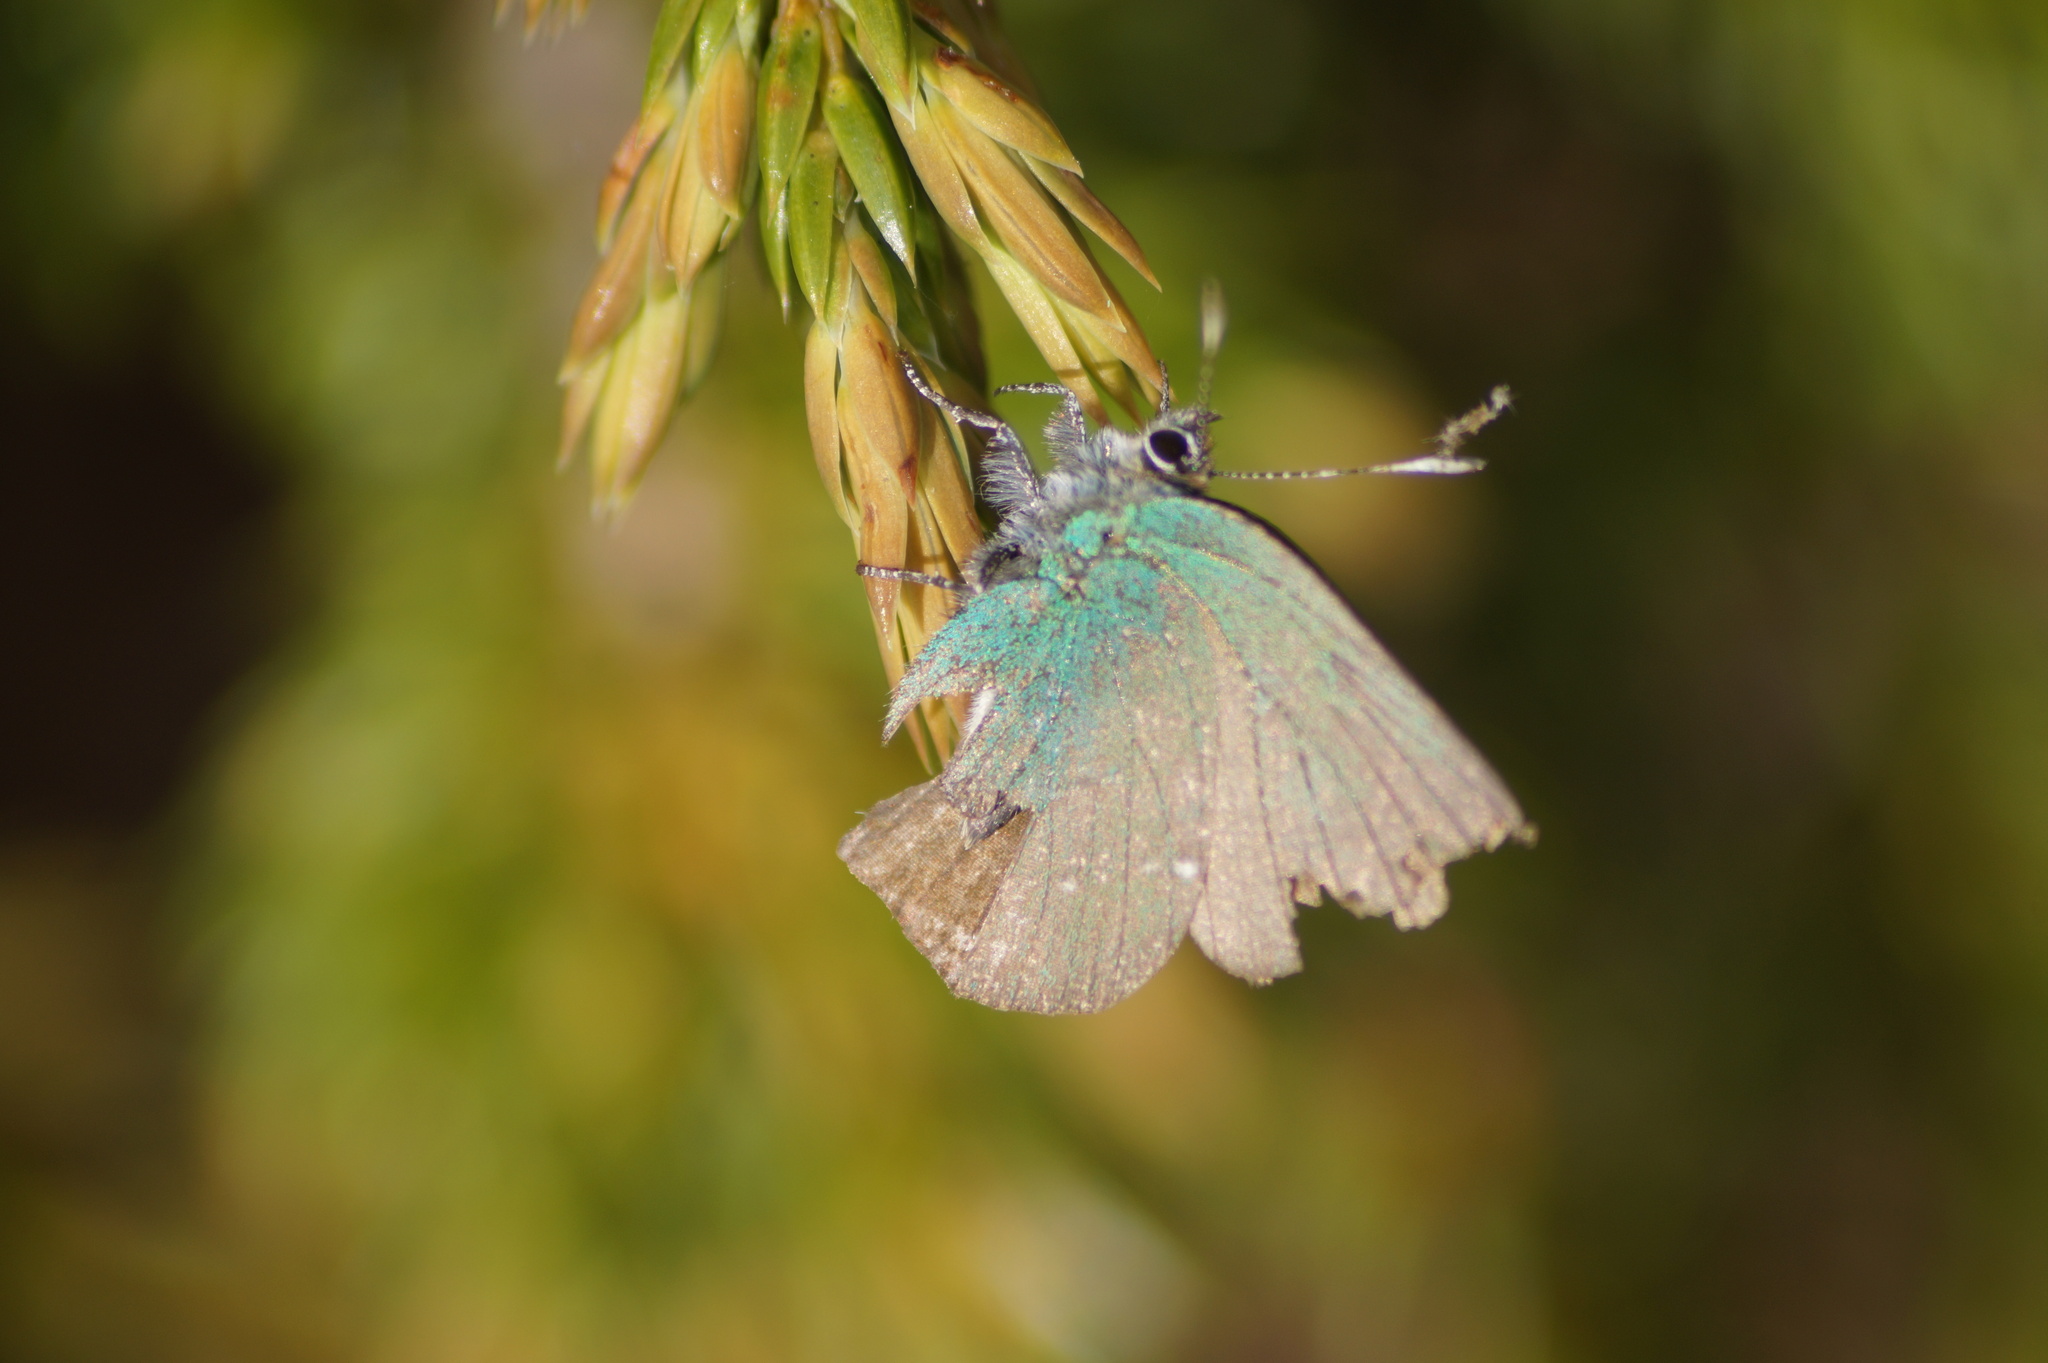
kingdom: Animalia
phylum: Arthropoda
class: Insecta
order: Lepidoptera
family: Lycaenidae
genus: Callophrys
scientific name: Callophrys rubi
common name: Green hairstreak
